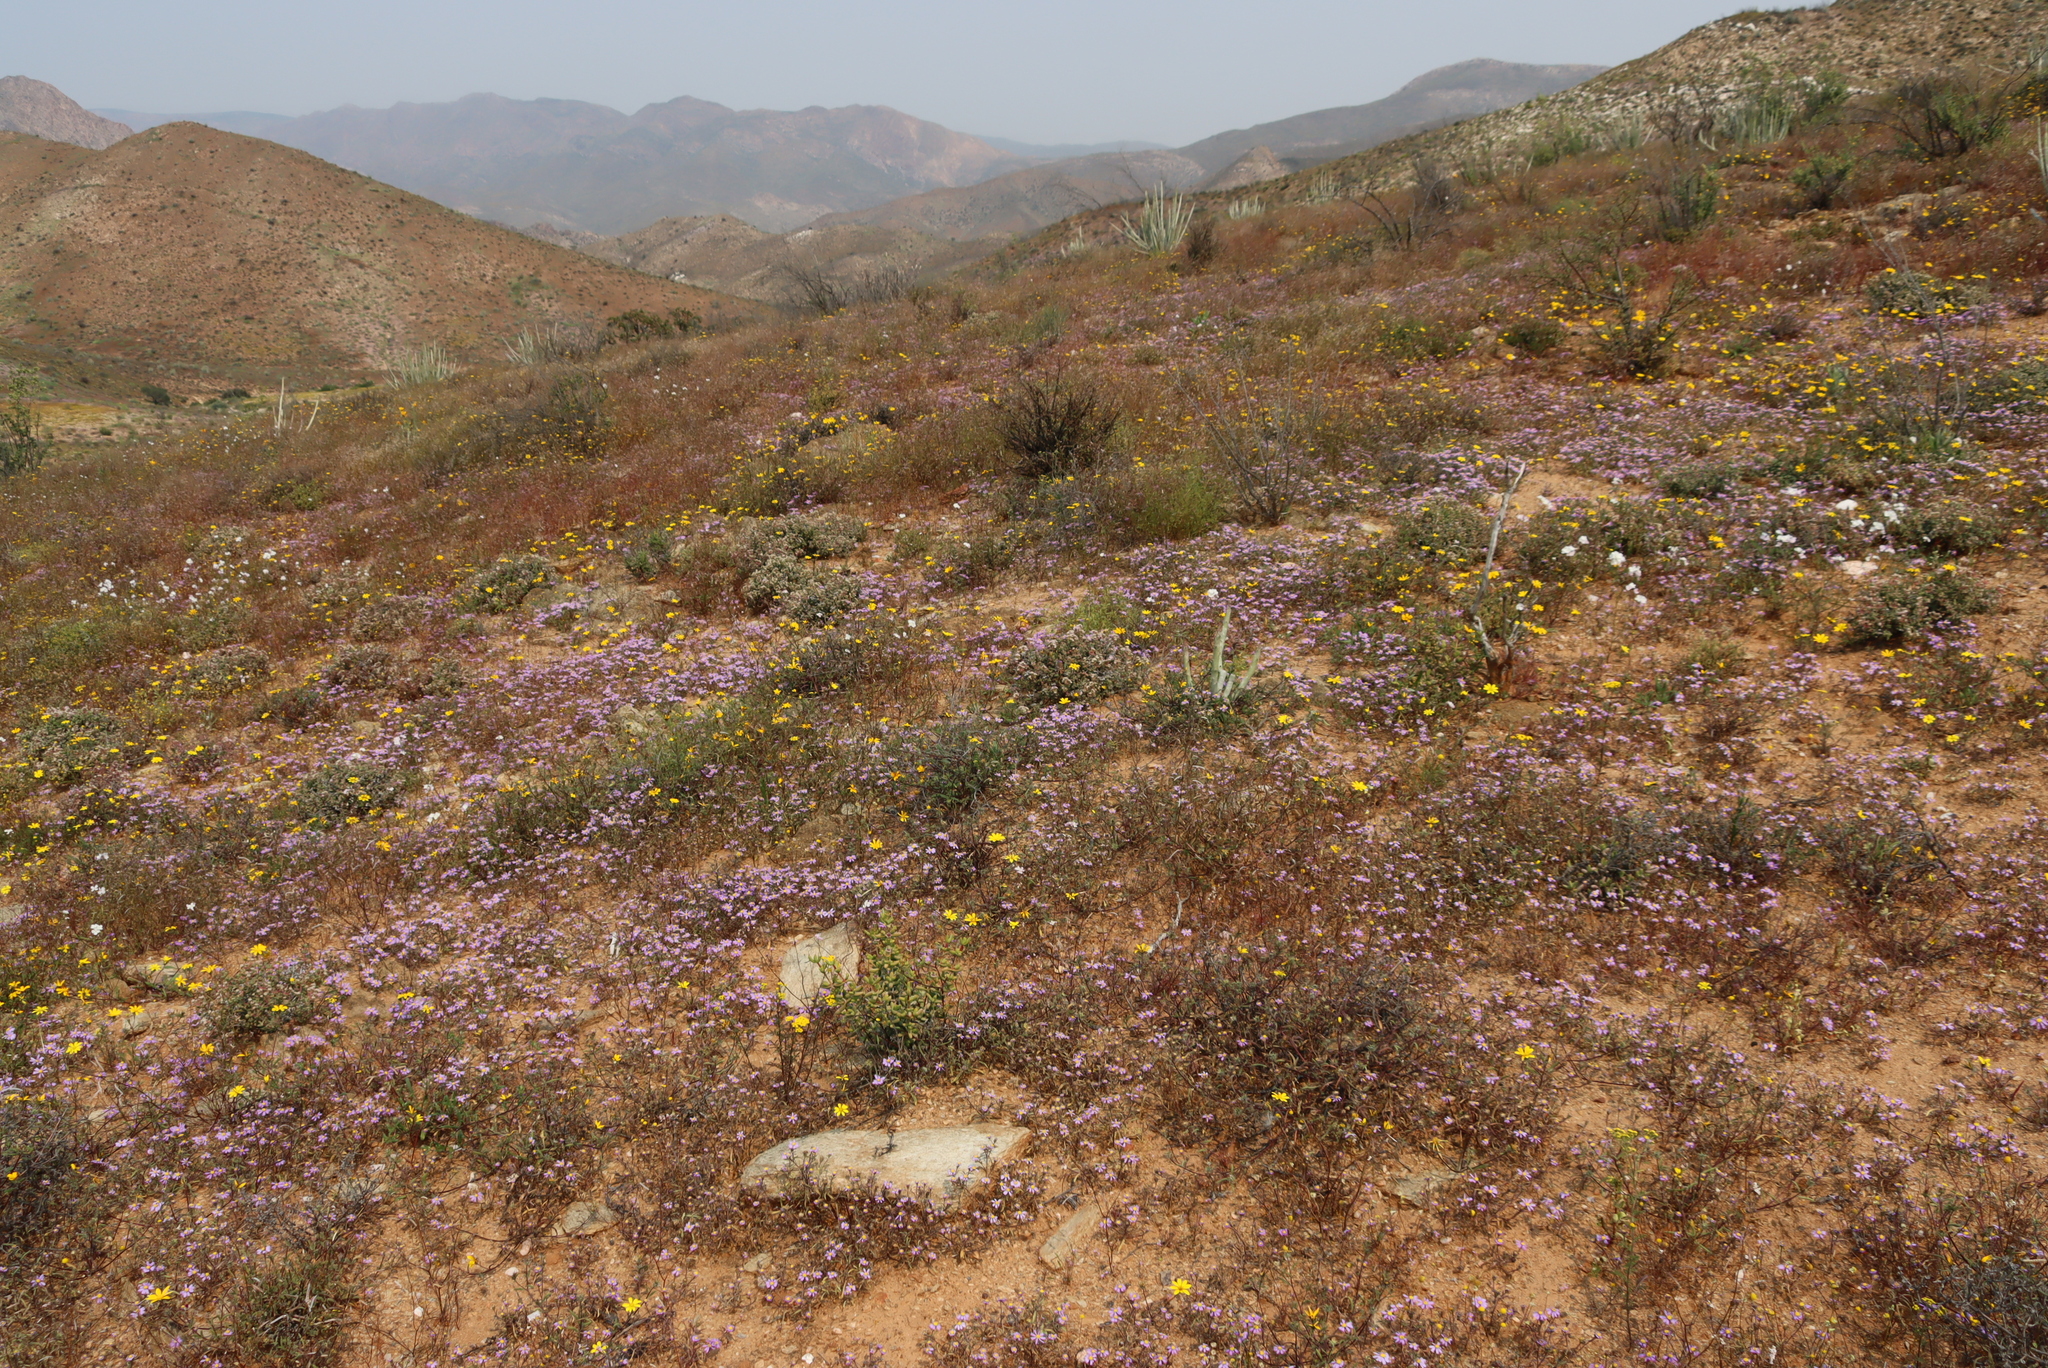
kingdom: Plantae
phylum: Tracheophyta
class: Magnoliopsida
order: Brassicales
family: Brassicaceae
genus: Heliophila
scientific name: Heliophila variabilis
